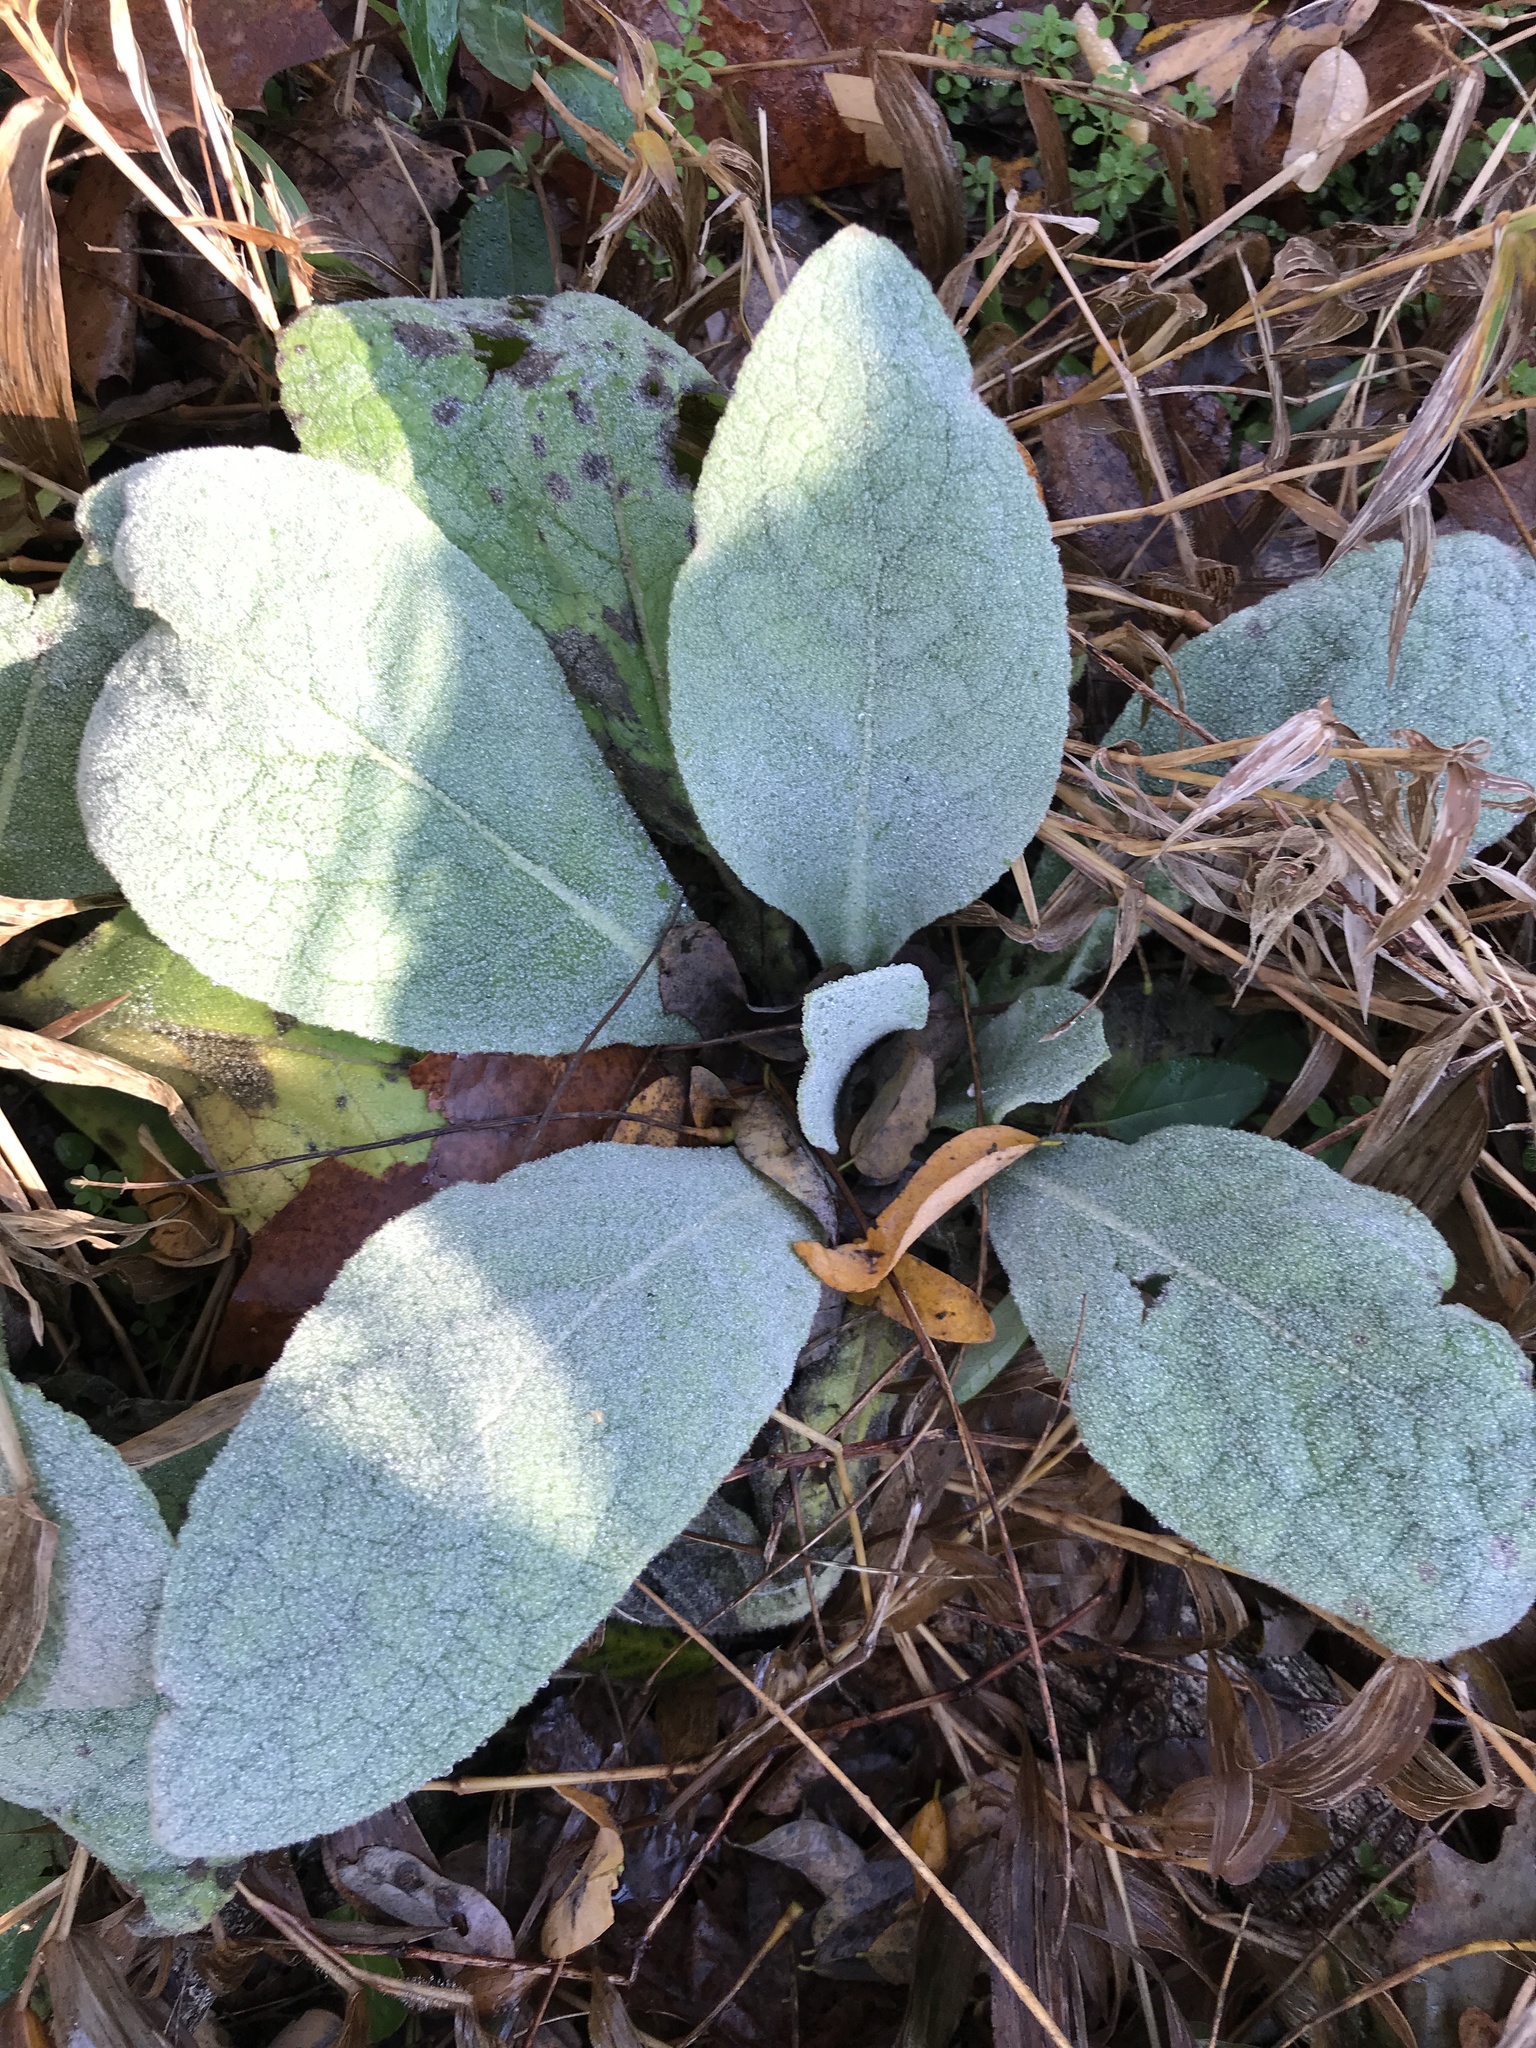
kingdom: Plantae
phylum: Tracheophyta
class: Magnoliopsida
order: Lamiales
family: Scrophulariaceae
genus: Verbascum
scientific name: Verbascum thapsus
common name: Common mullein
